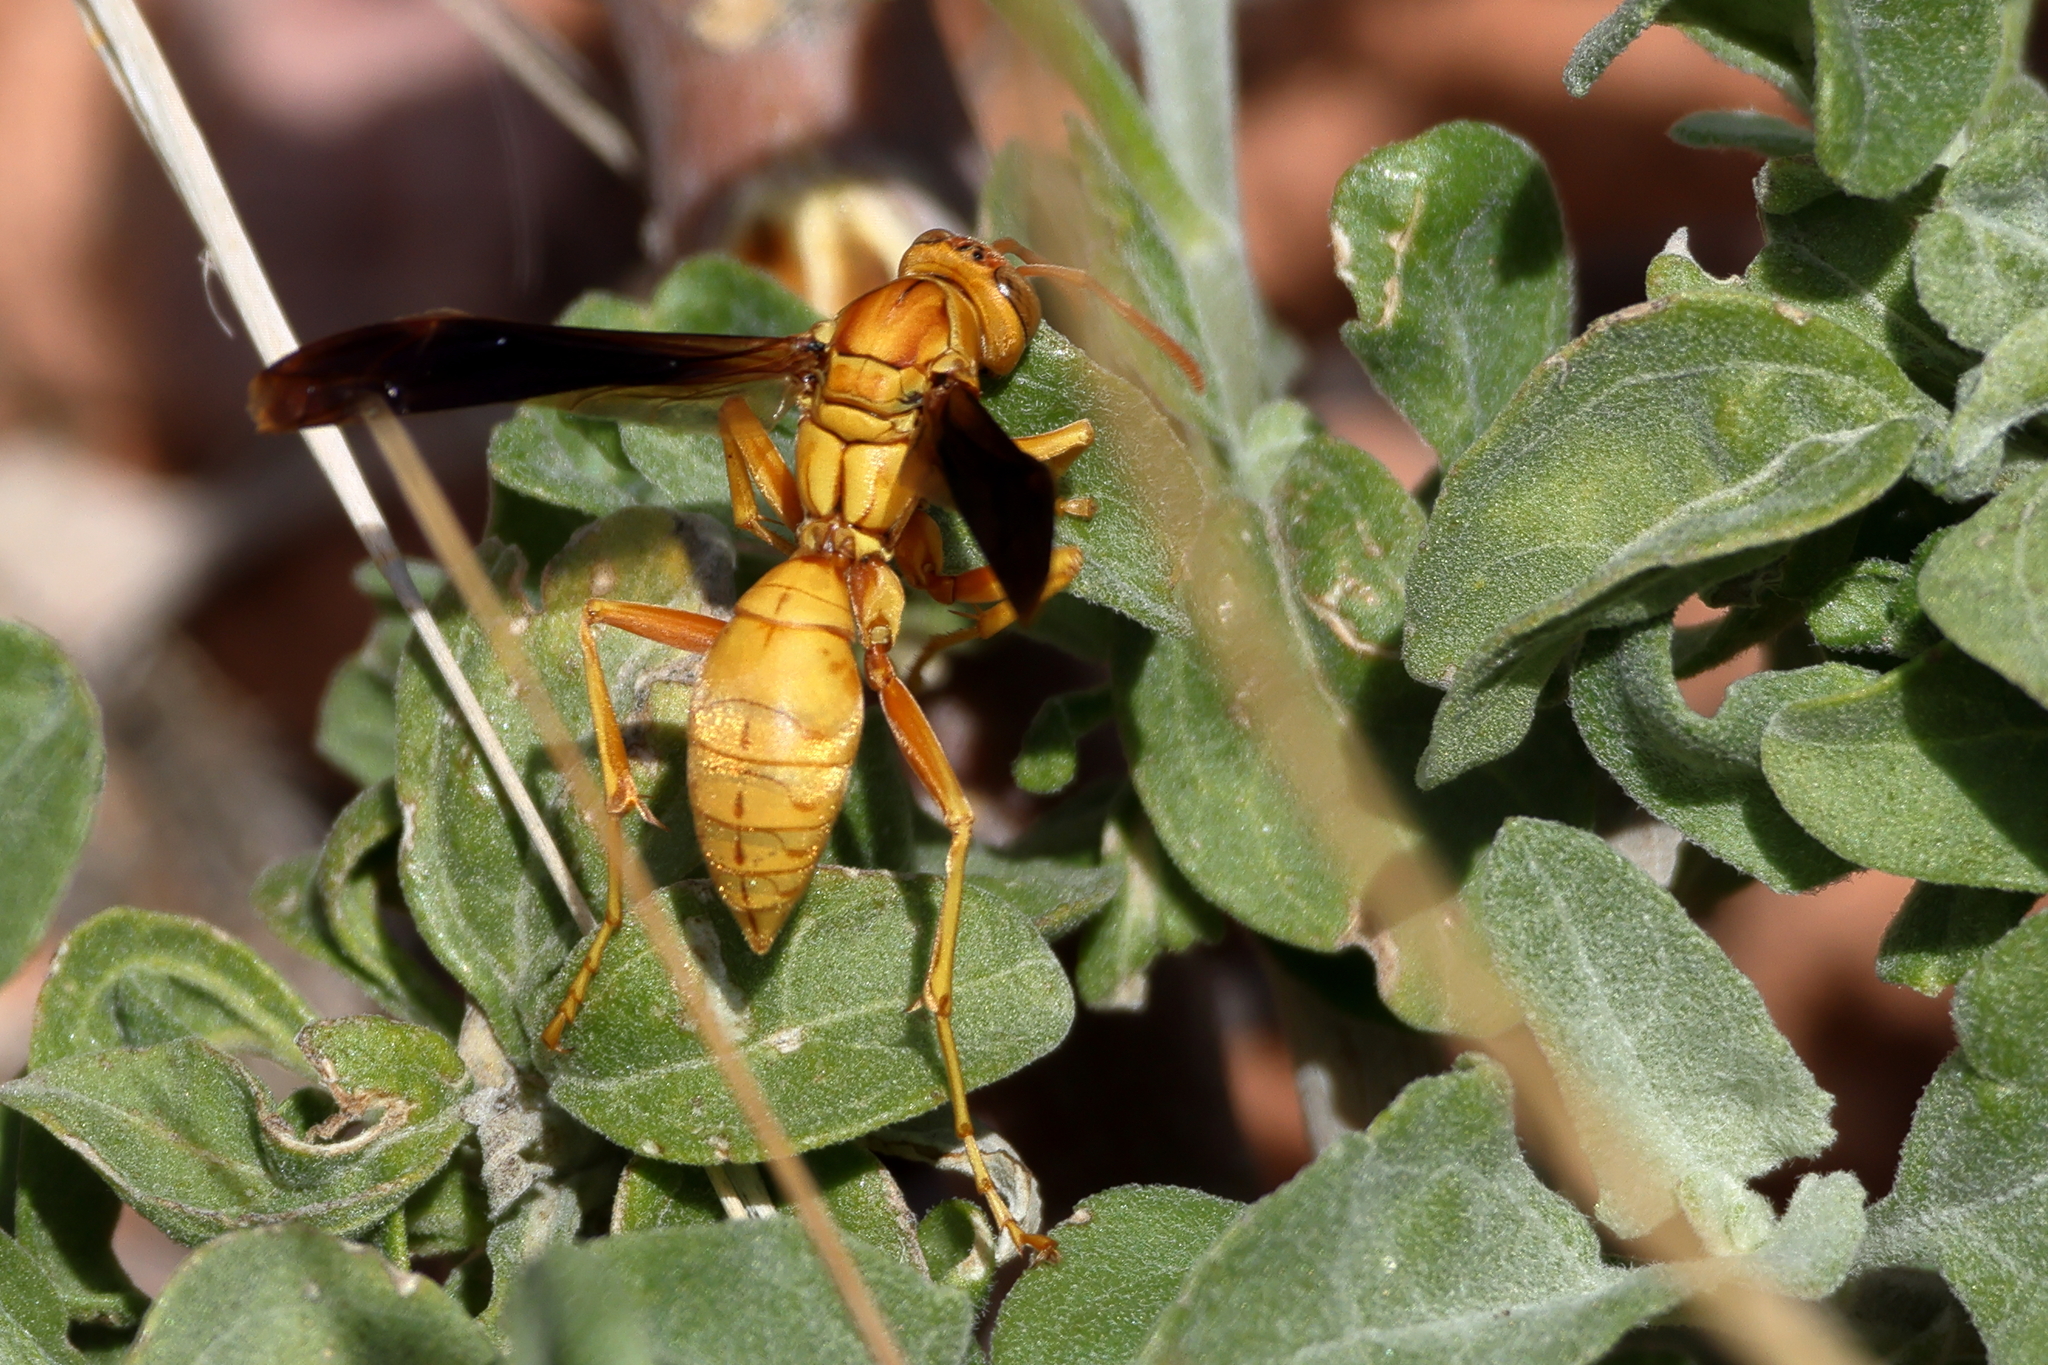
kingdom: Animalia
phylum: Arthropoda
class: Insecta
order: Hymenoptera
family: Eumenidae
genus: Polistes
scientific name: Polistes flavus
